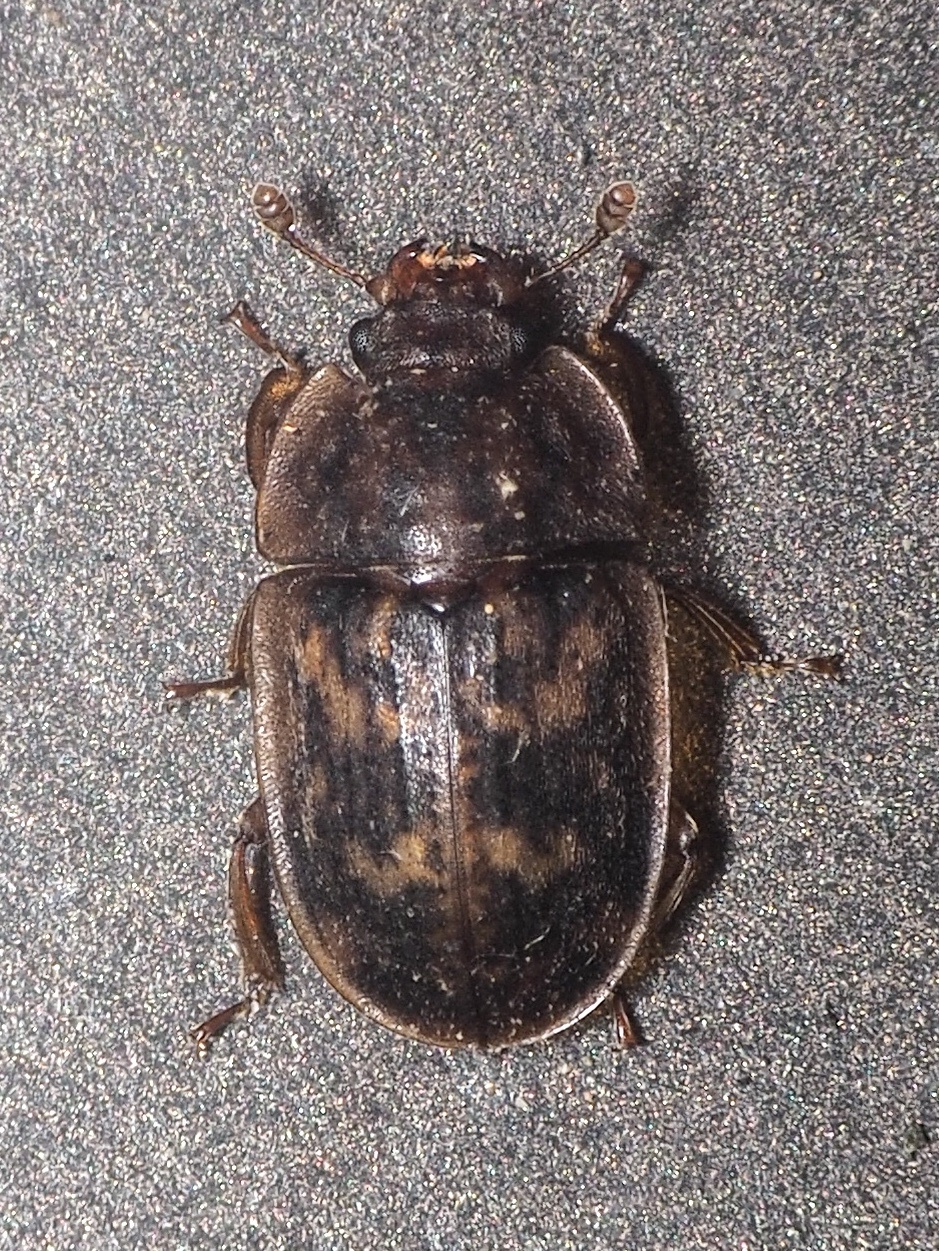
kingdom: Animalia
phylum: Arthropoda
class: Insecta
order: Coleoptera
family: Nitidulidae
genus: Soronia
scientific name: Soronia punctatissima
